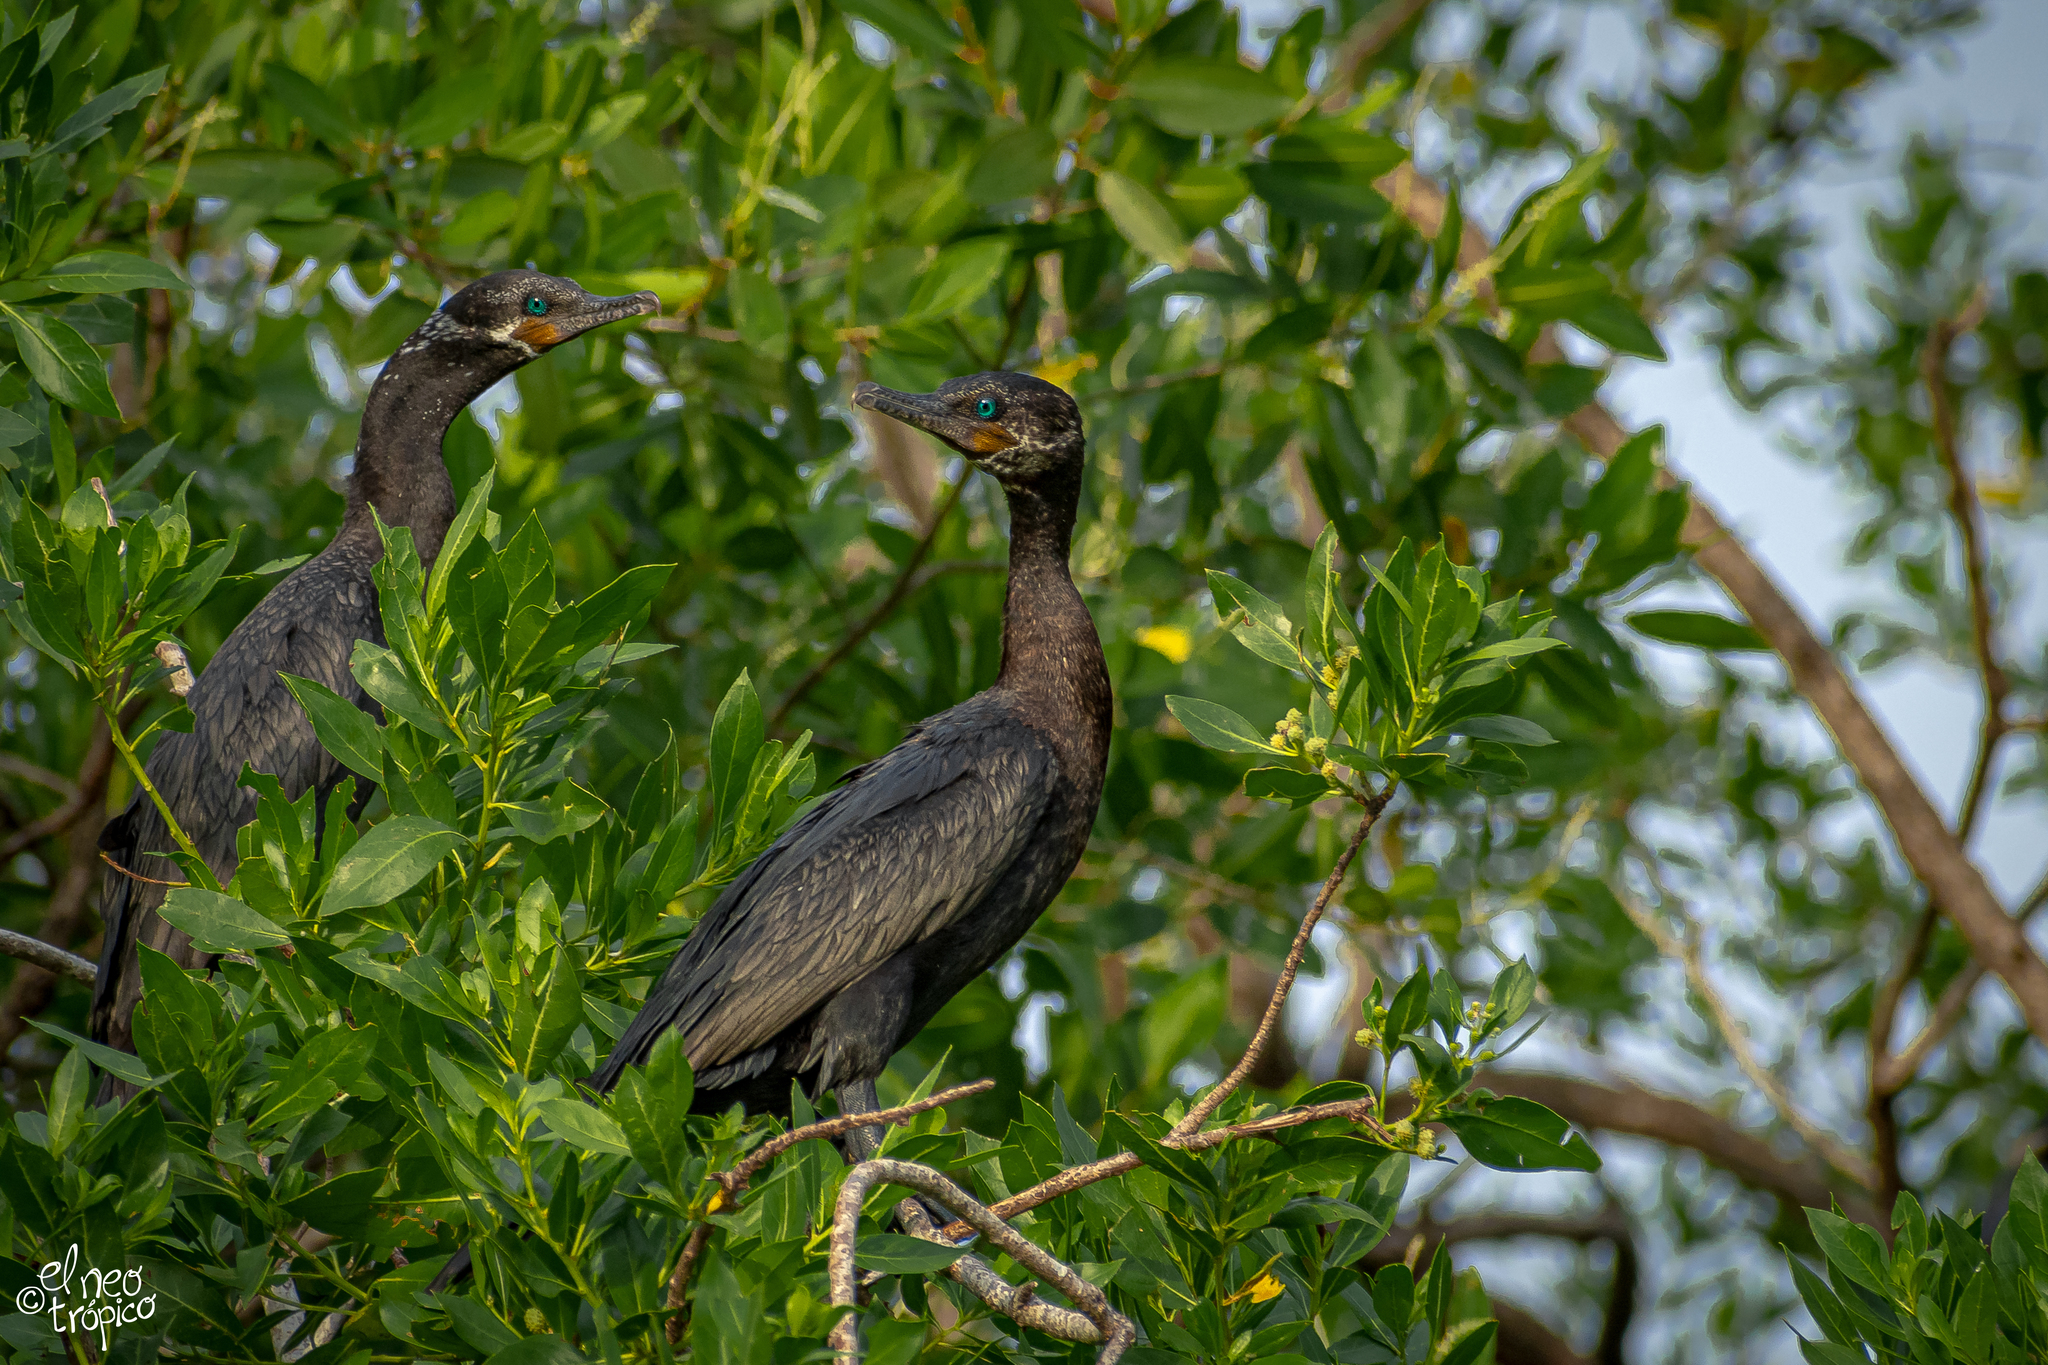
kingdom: Animalia
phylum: Chordata
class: Aves
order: Suliformes
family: Phalacrocoracidae
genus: Phalacrocorax
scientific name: Phalacrocorax brasilianus
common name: Neotropic cormorant
